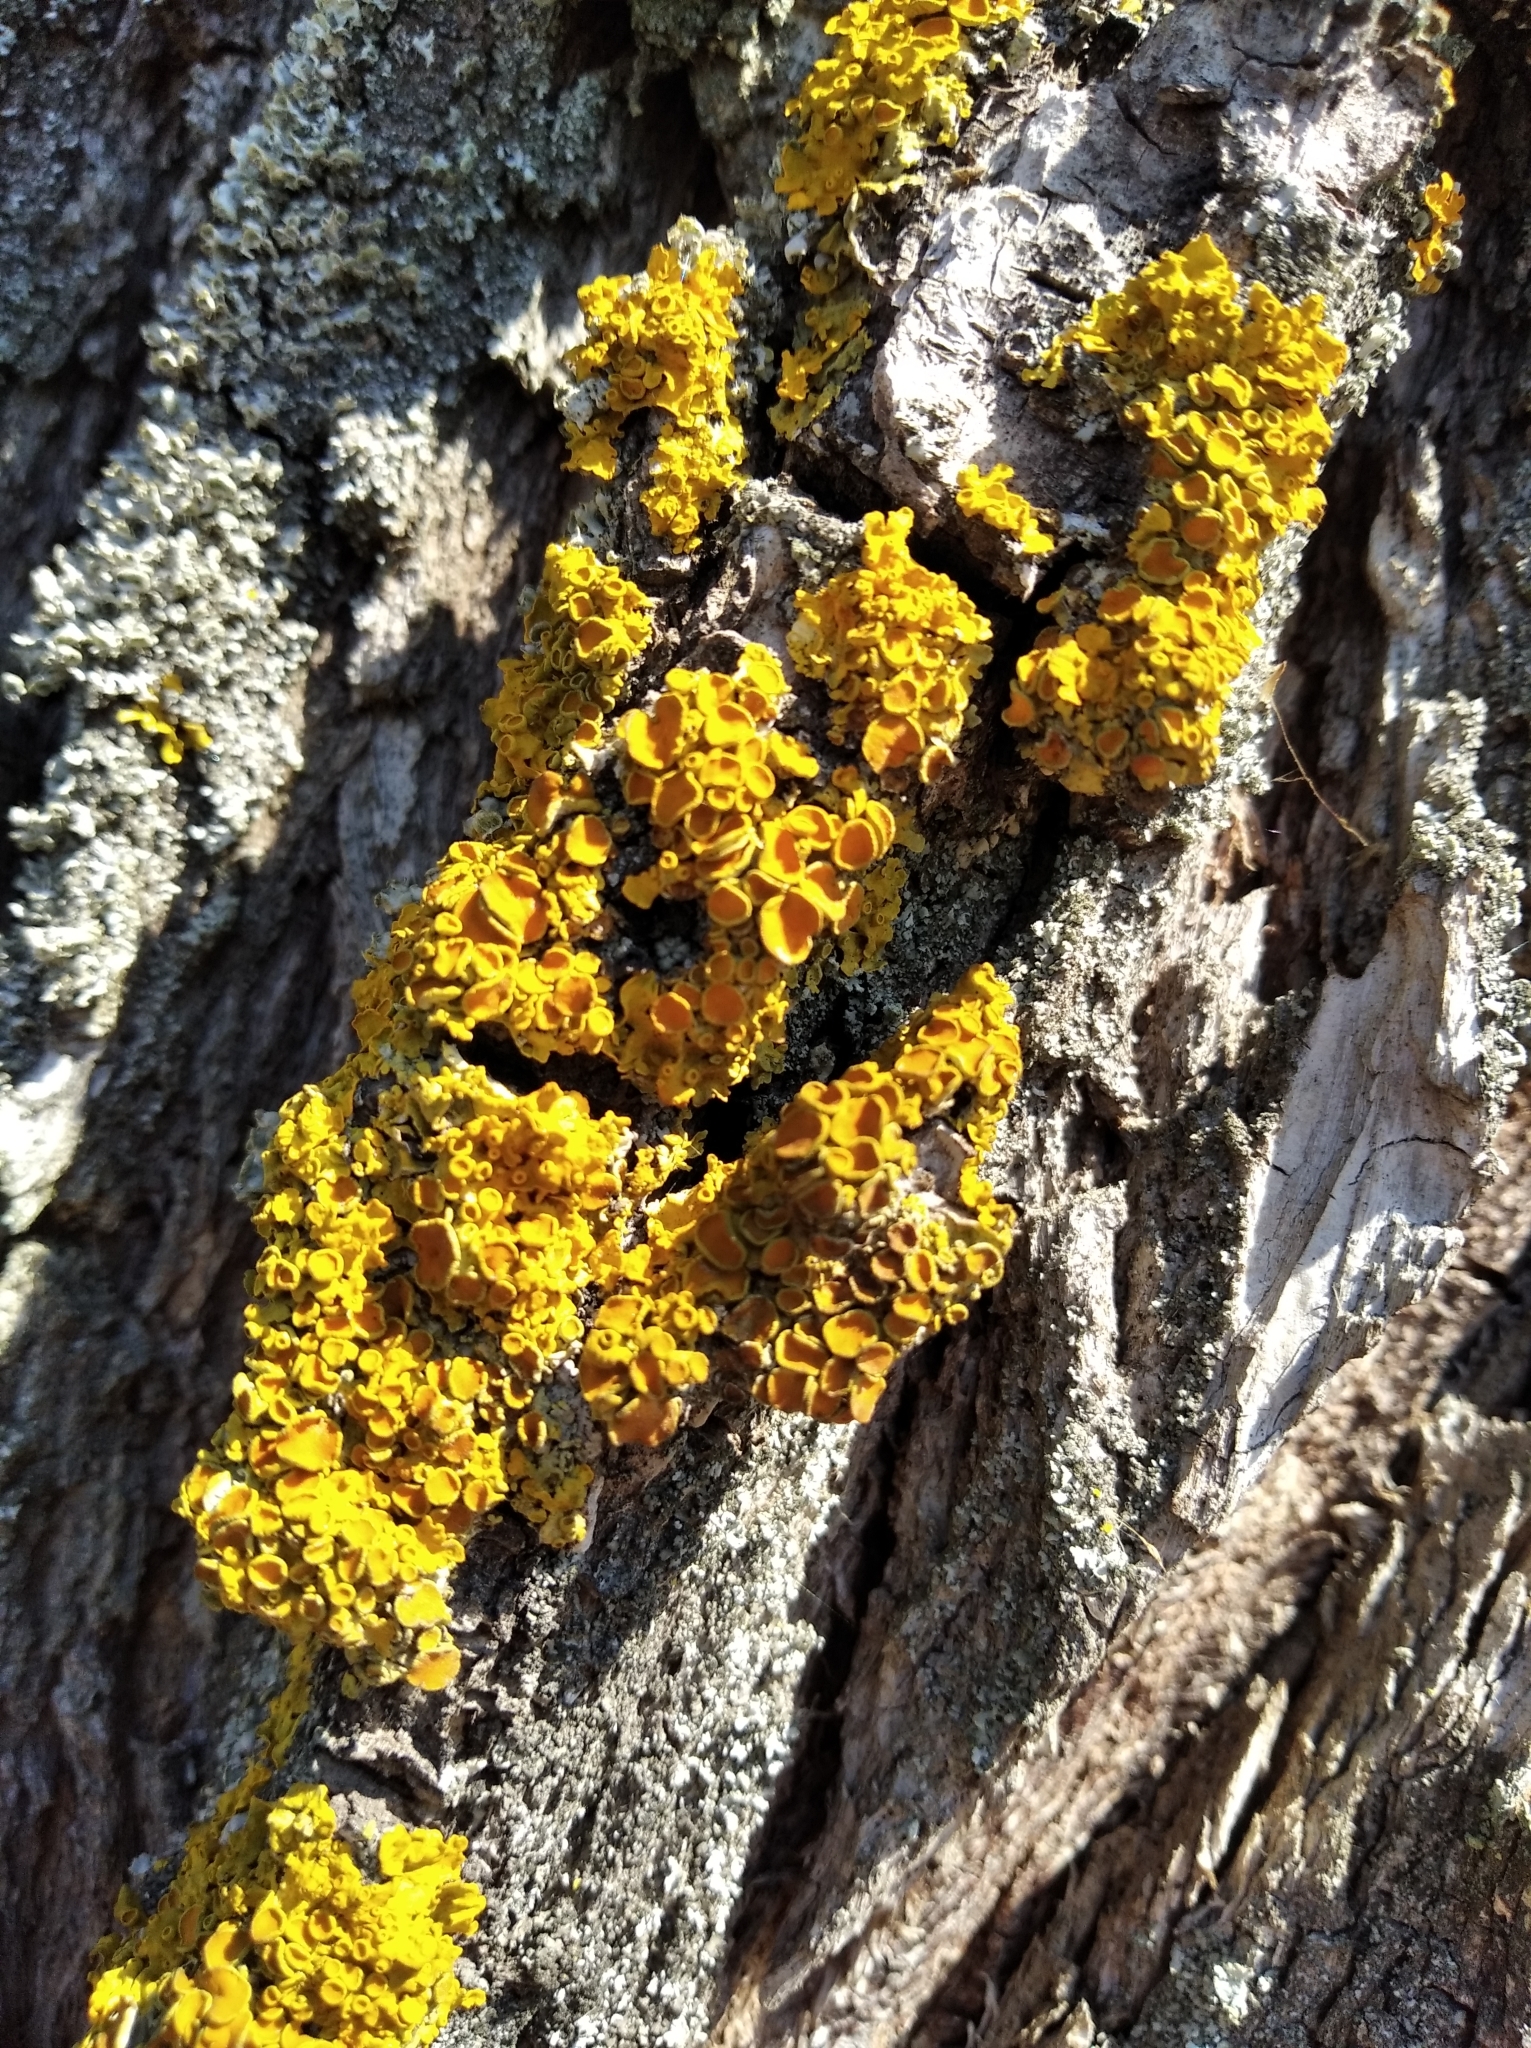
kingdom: Fungi
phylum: Ascomycota
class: Lecanoromycetes
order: Teloschistales
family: Teloschistaceae
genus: Xanthoria
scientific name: Xanthoria parietina
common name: Common orange lichen
